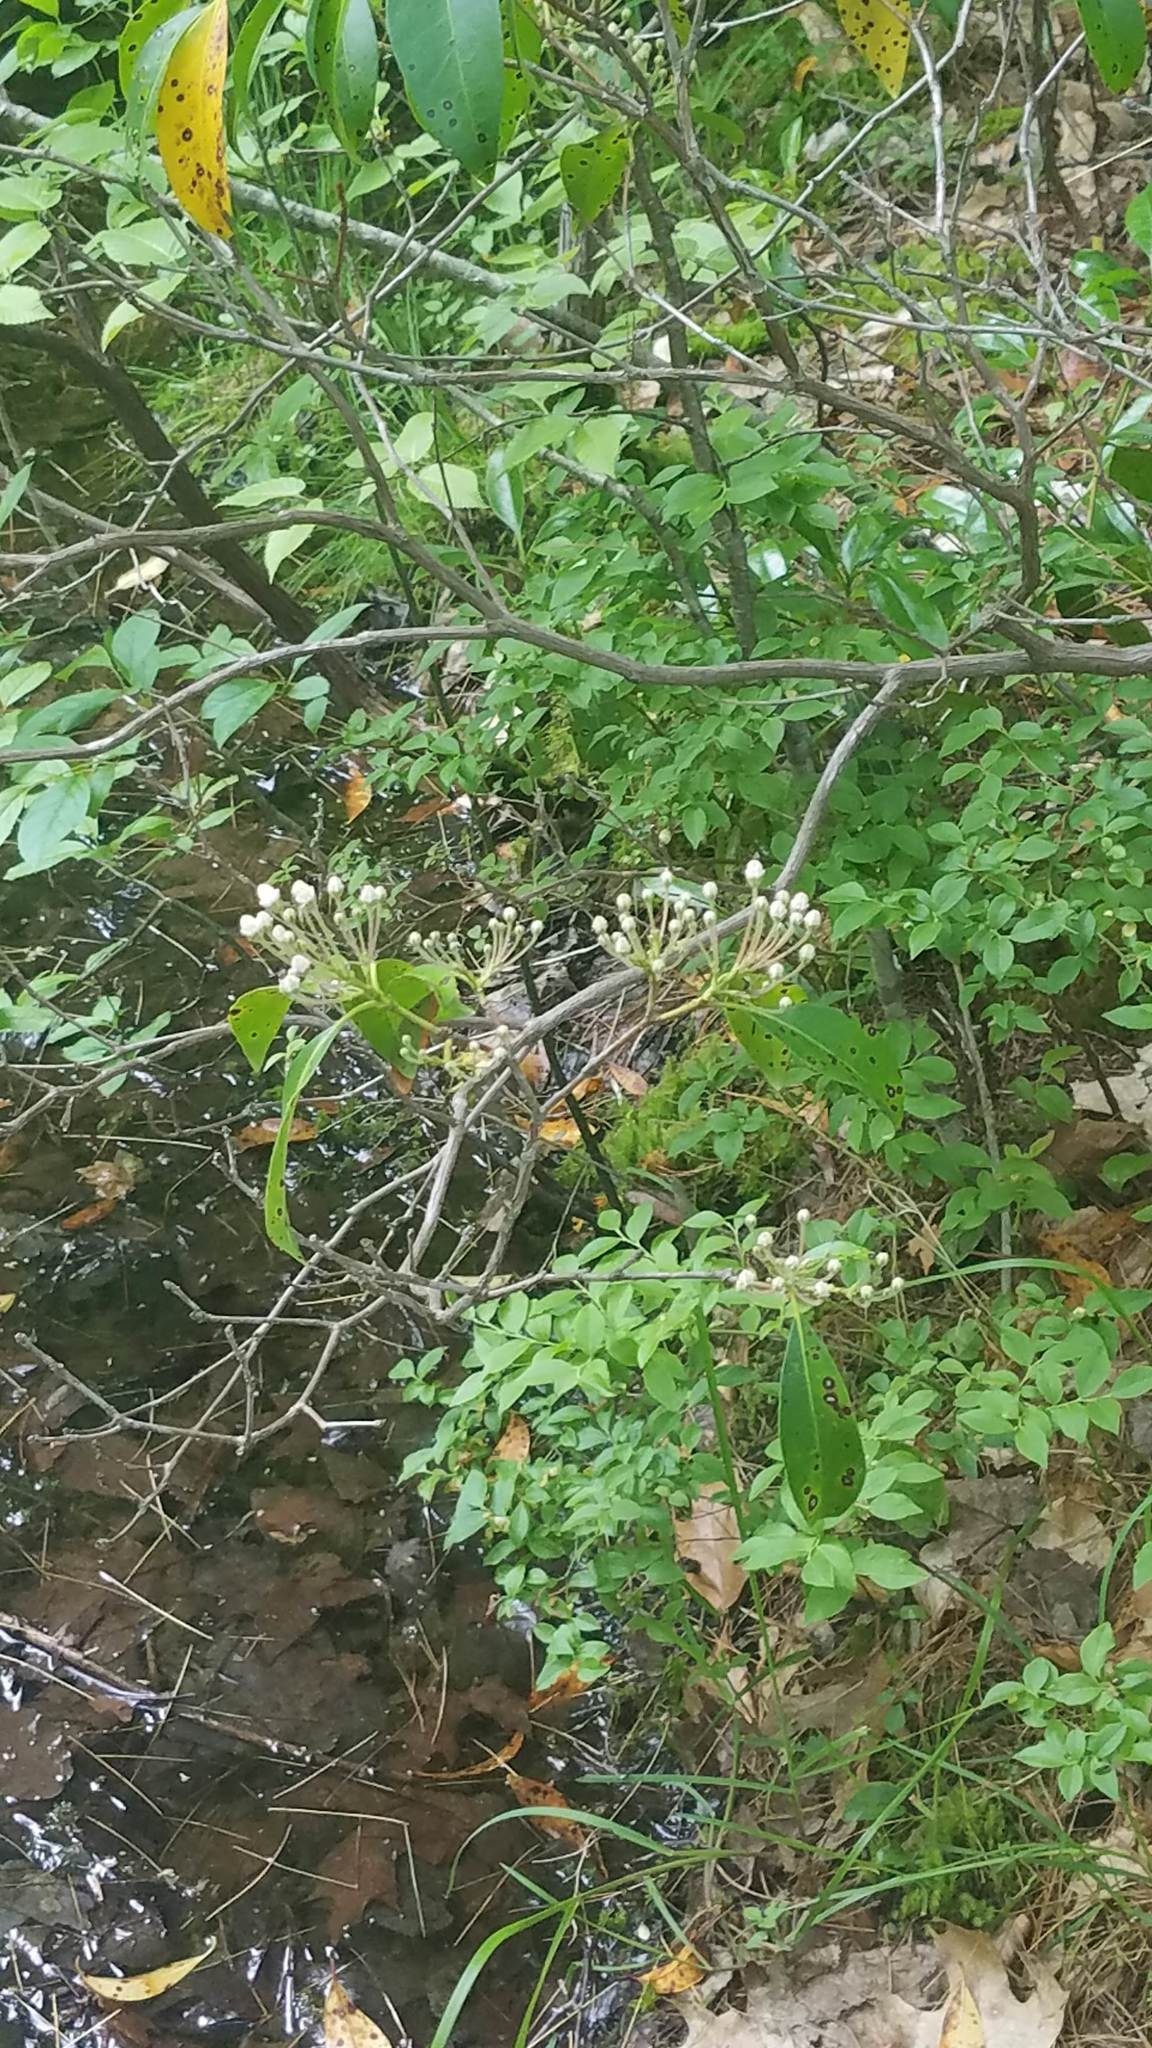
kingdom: Plantae
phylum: Tracheophyta
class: Magnoliopsida
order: Ericales
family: Ericaceae
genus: Kalmia
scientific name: Kalmia latifolia
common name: Mountain-laurel
